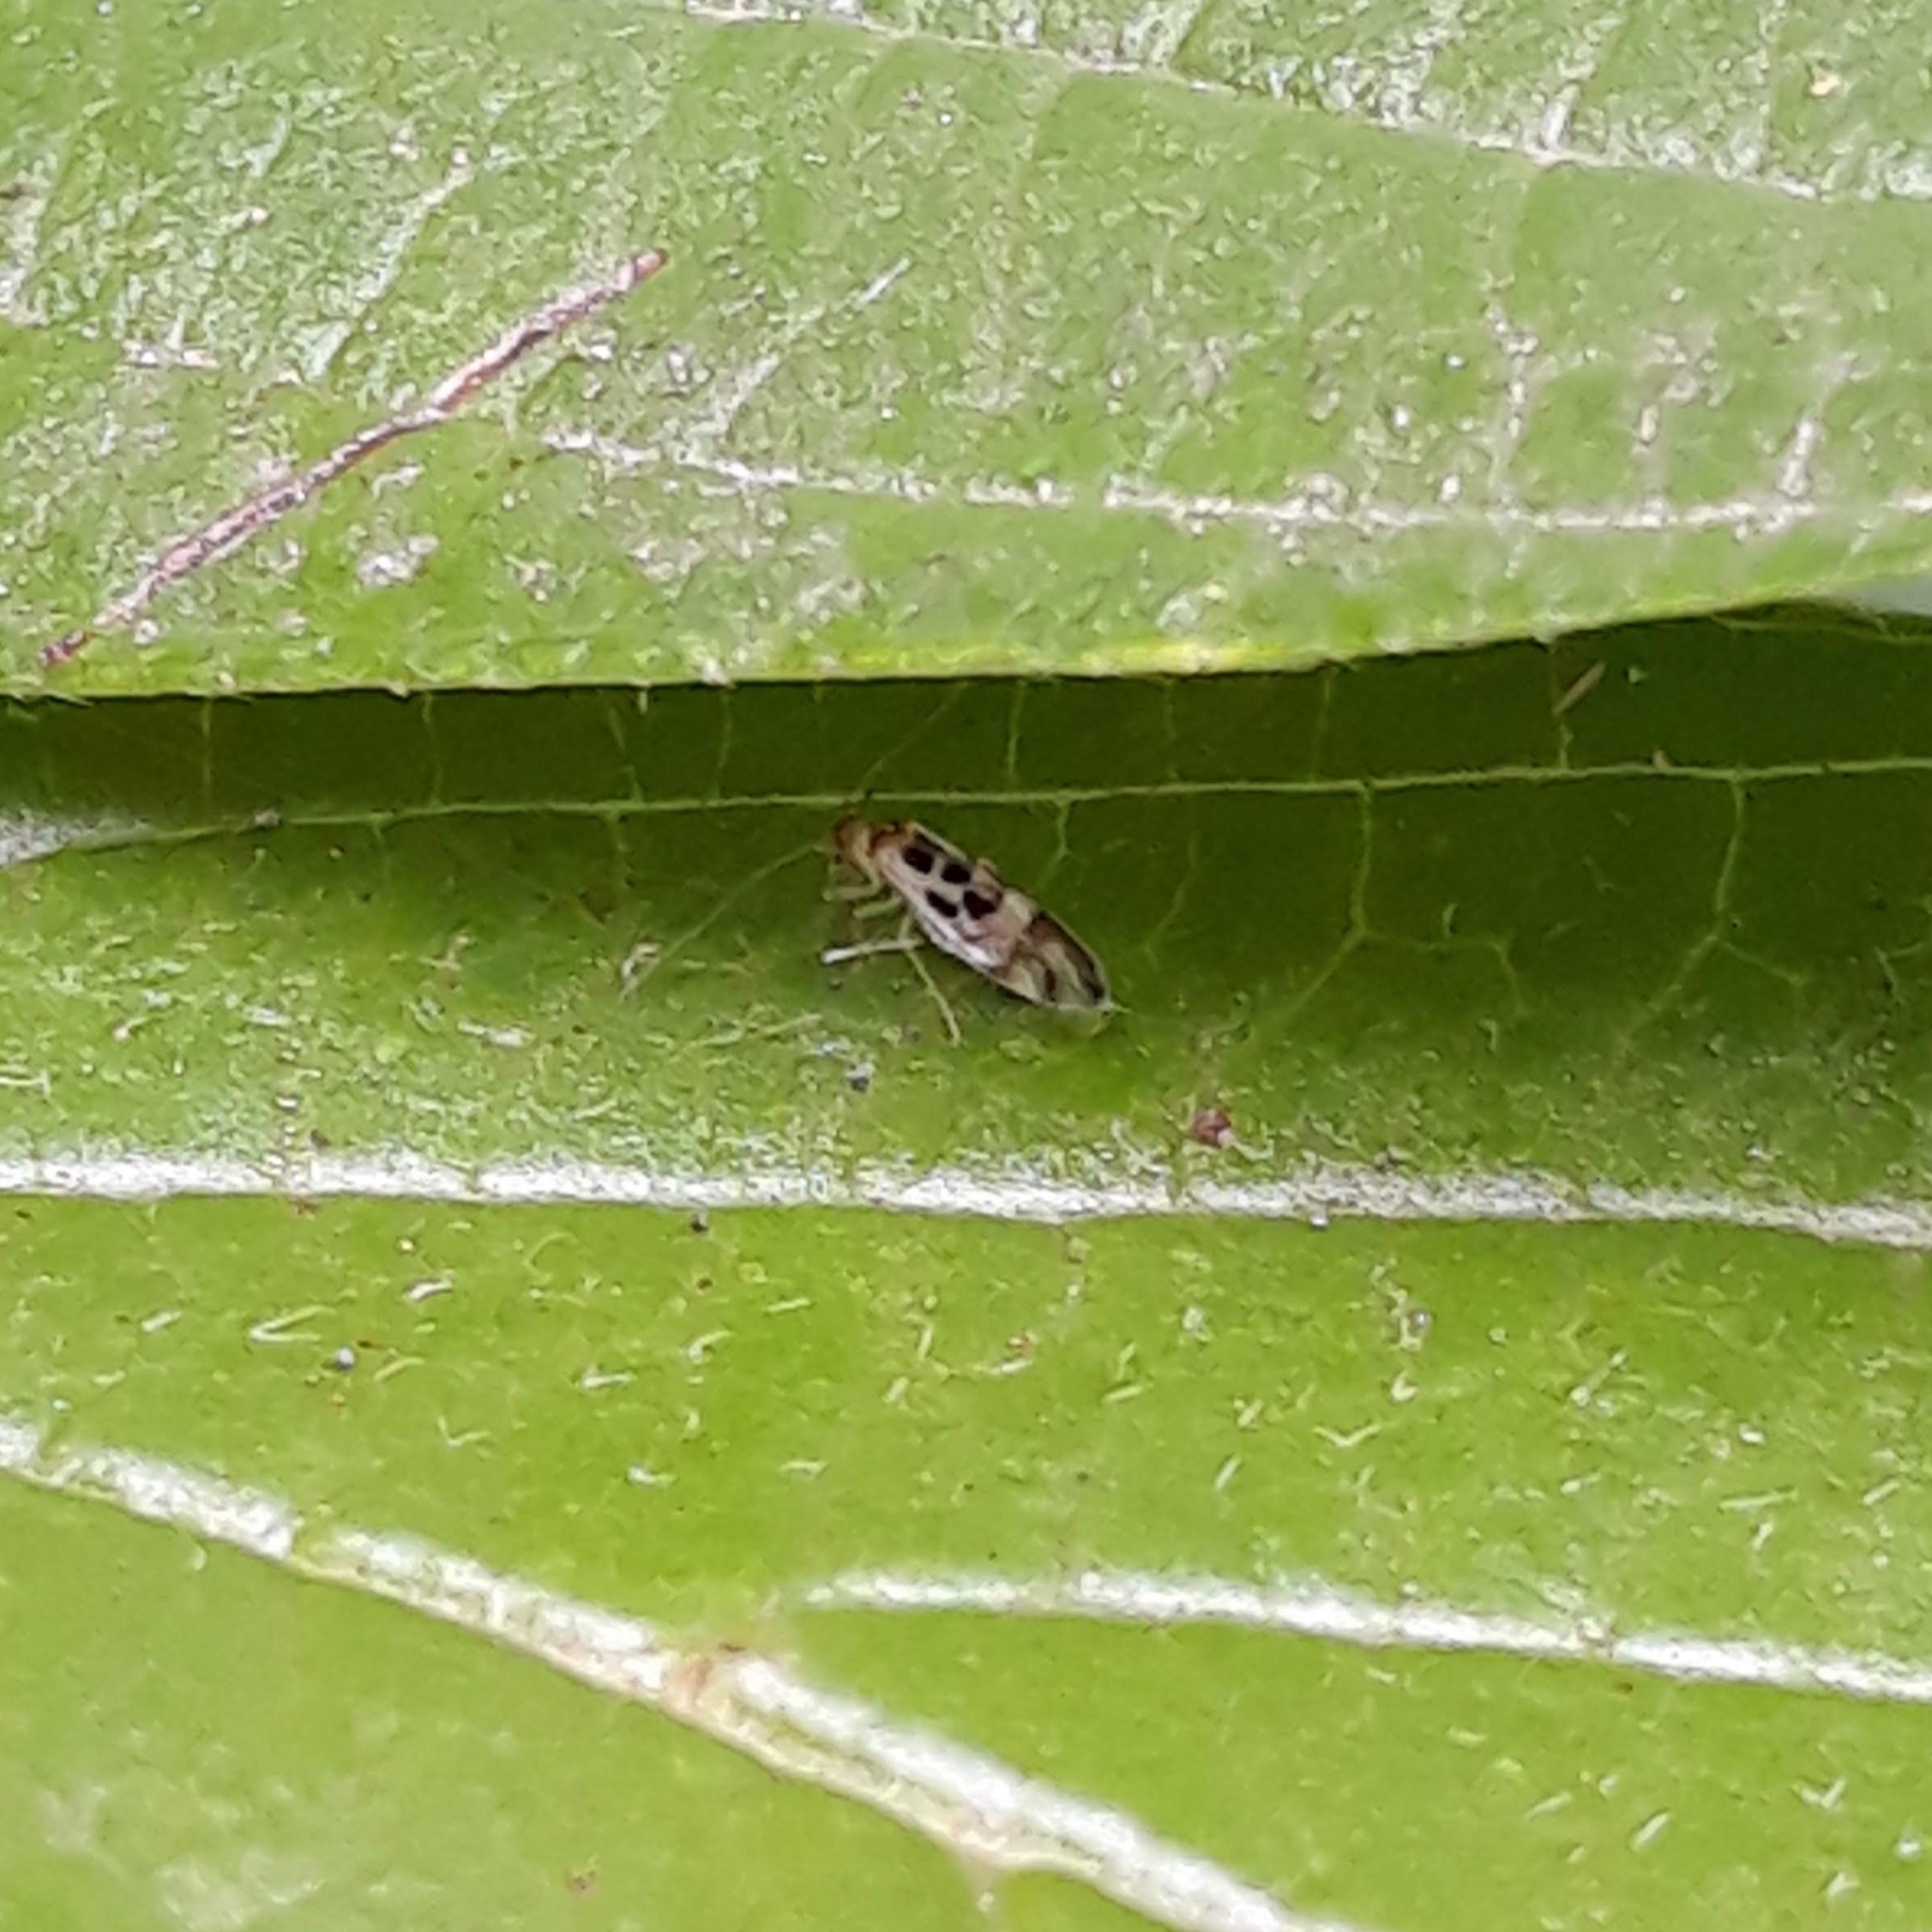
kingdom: Animalia
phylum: Arthropoda
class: Insecta
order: Psocodea
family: Stenopsocidae
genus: Graphopsocus
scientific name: Graphopsocus cruciatus
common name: Lizard bark louse
